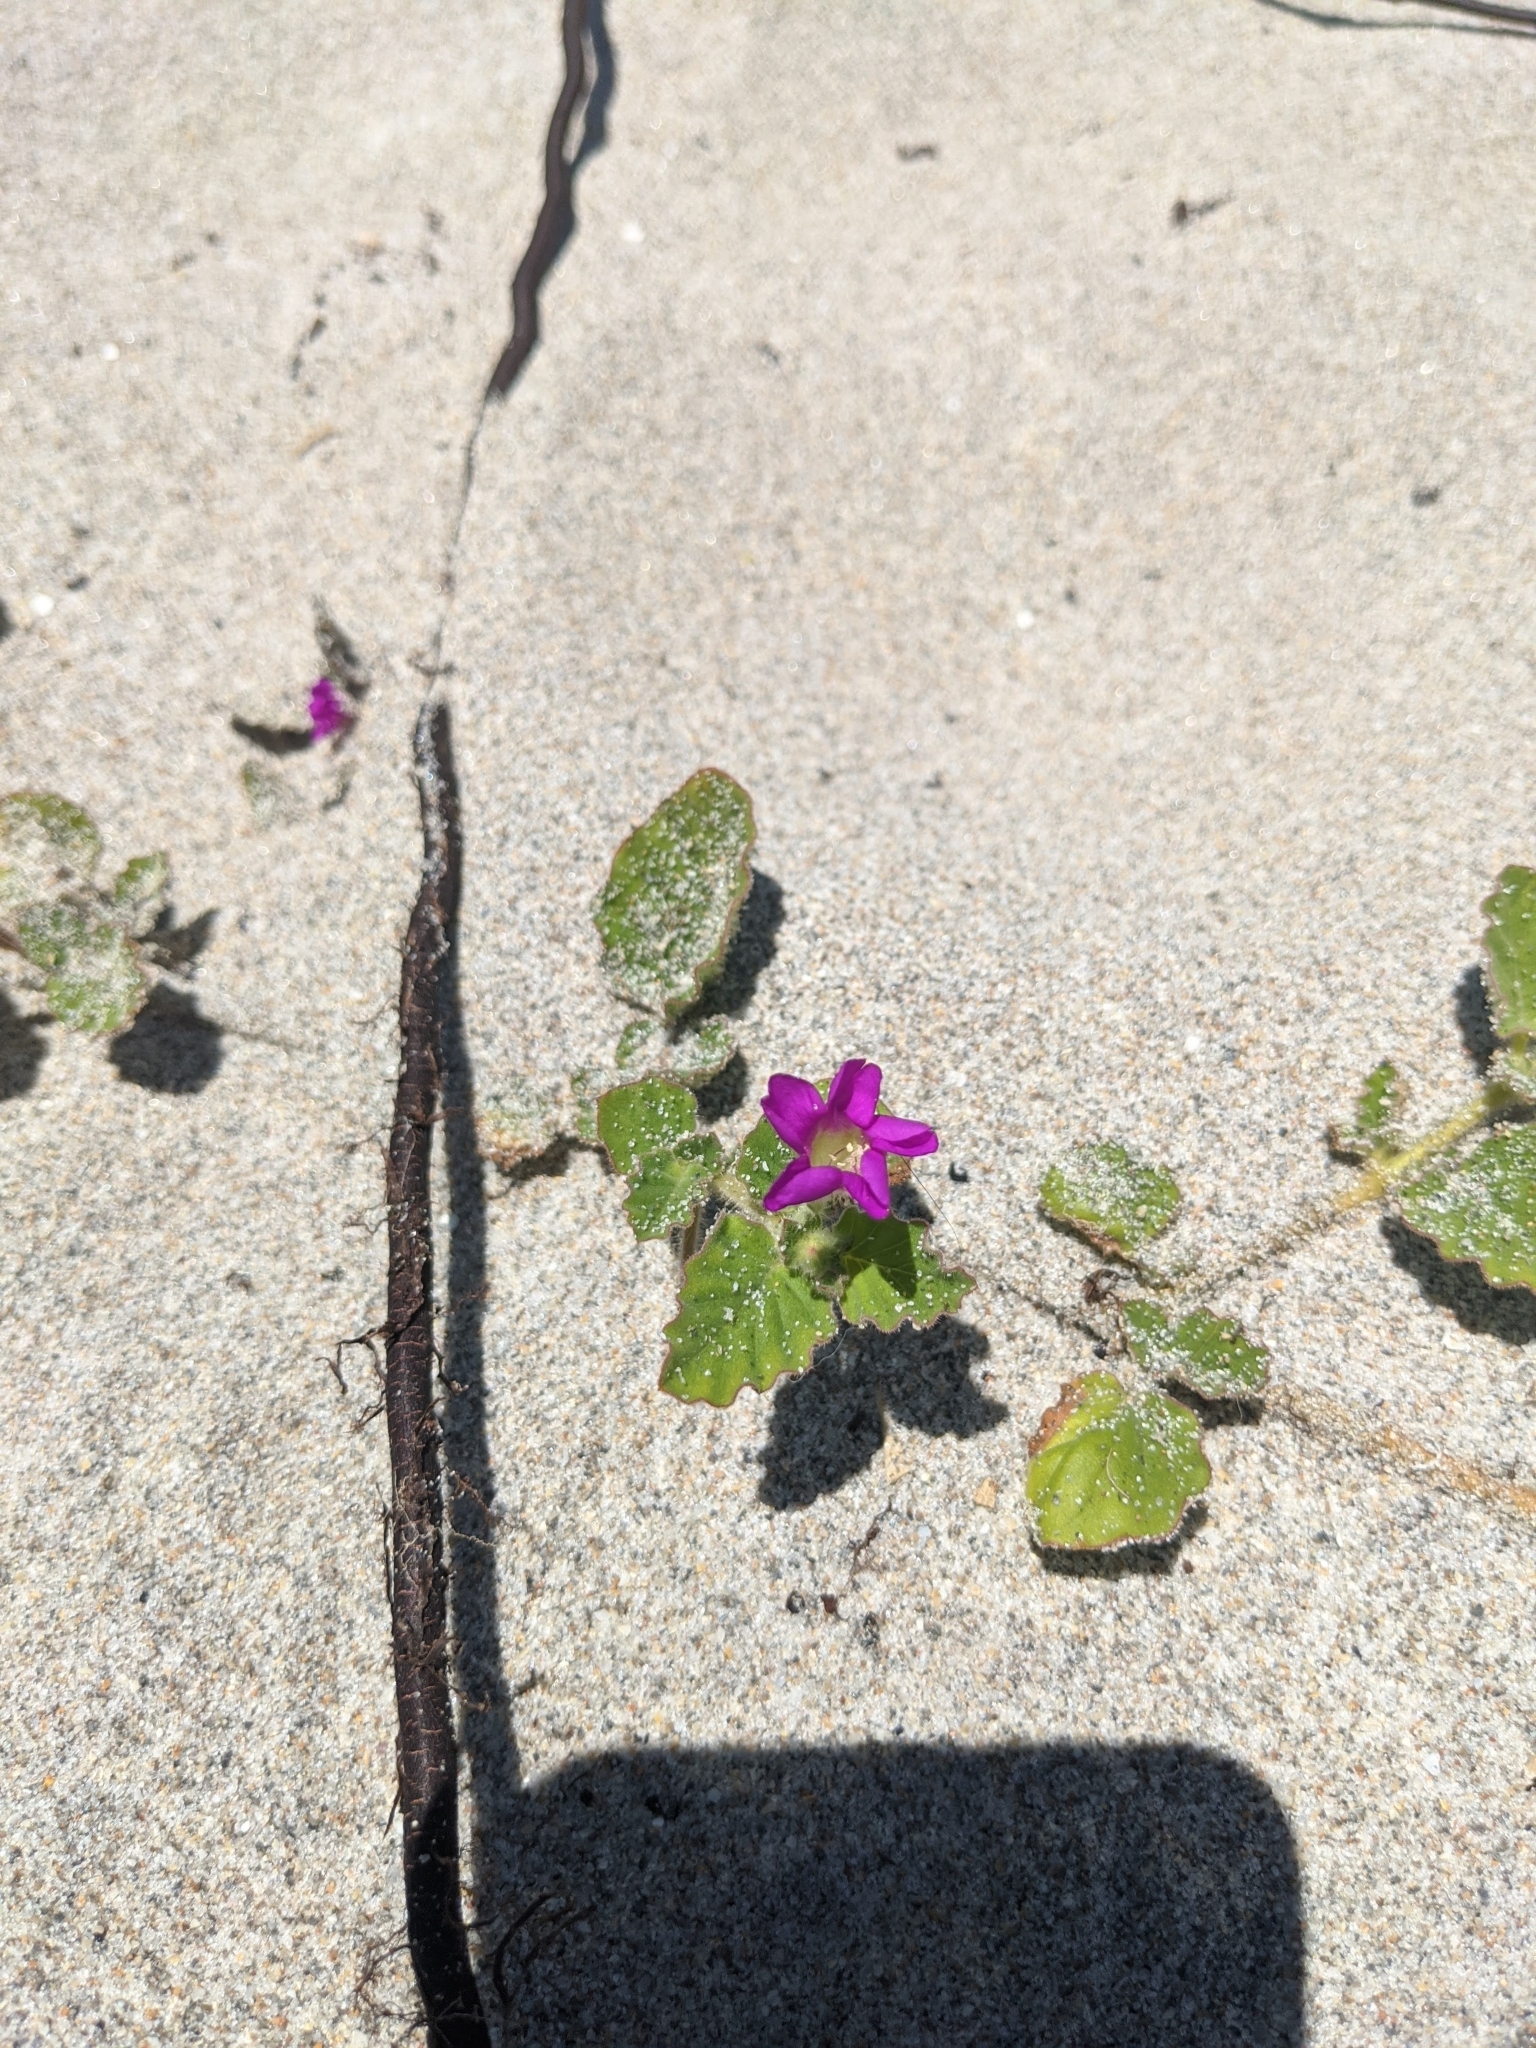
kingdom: Plantae
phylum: Tracheophyta
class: Magnoliopsida
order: Caryophyllales
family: Nyctaginaceae
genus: Okenia
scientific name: Okenia hypogaea
